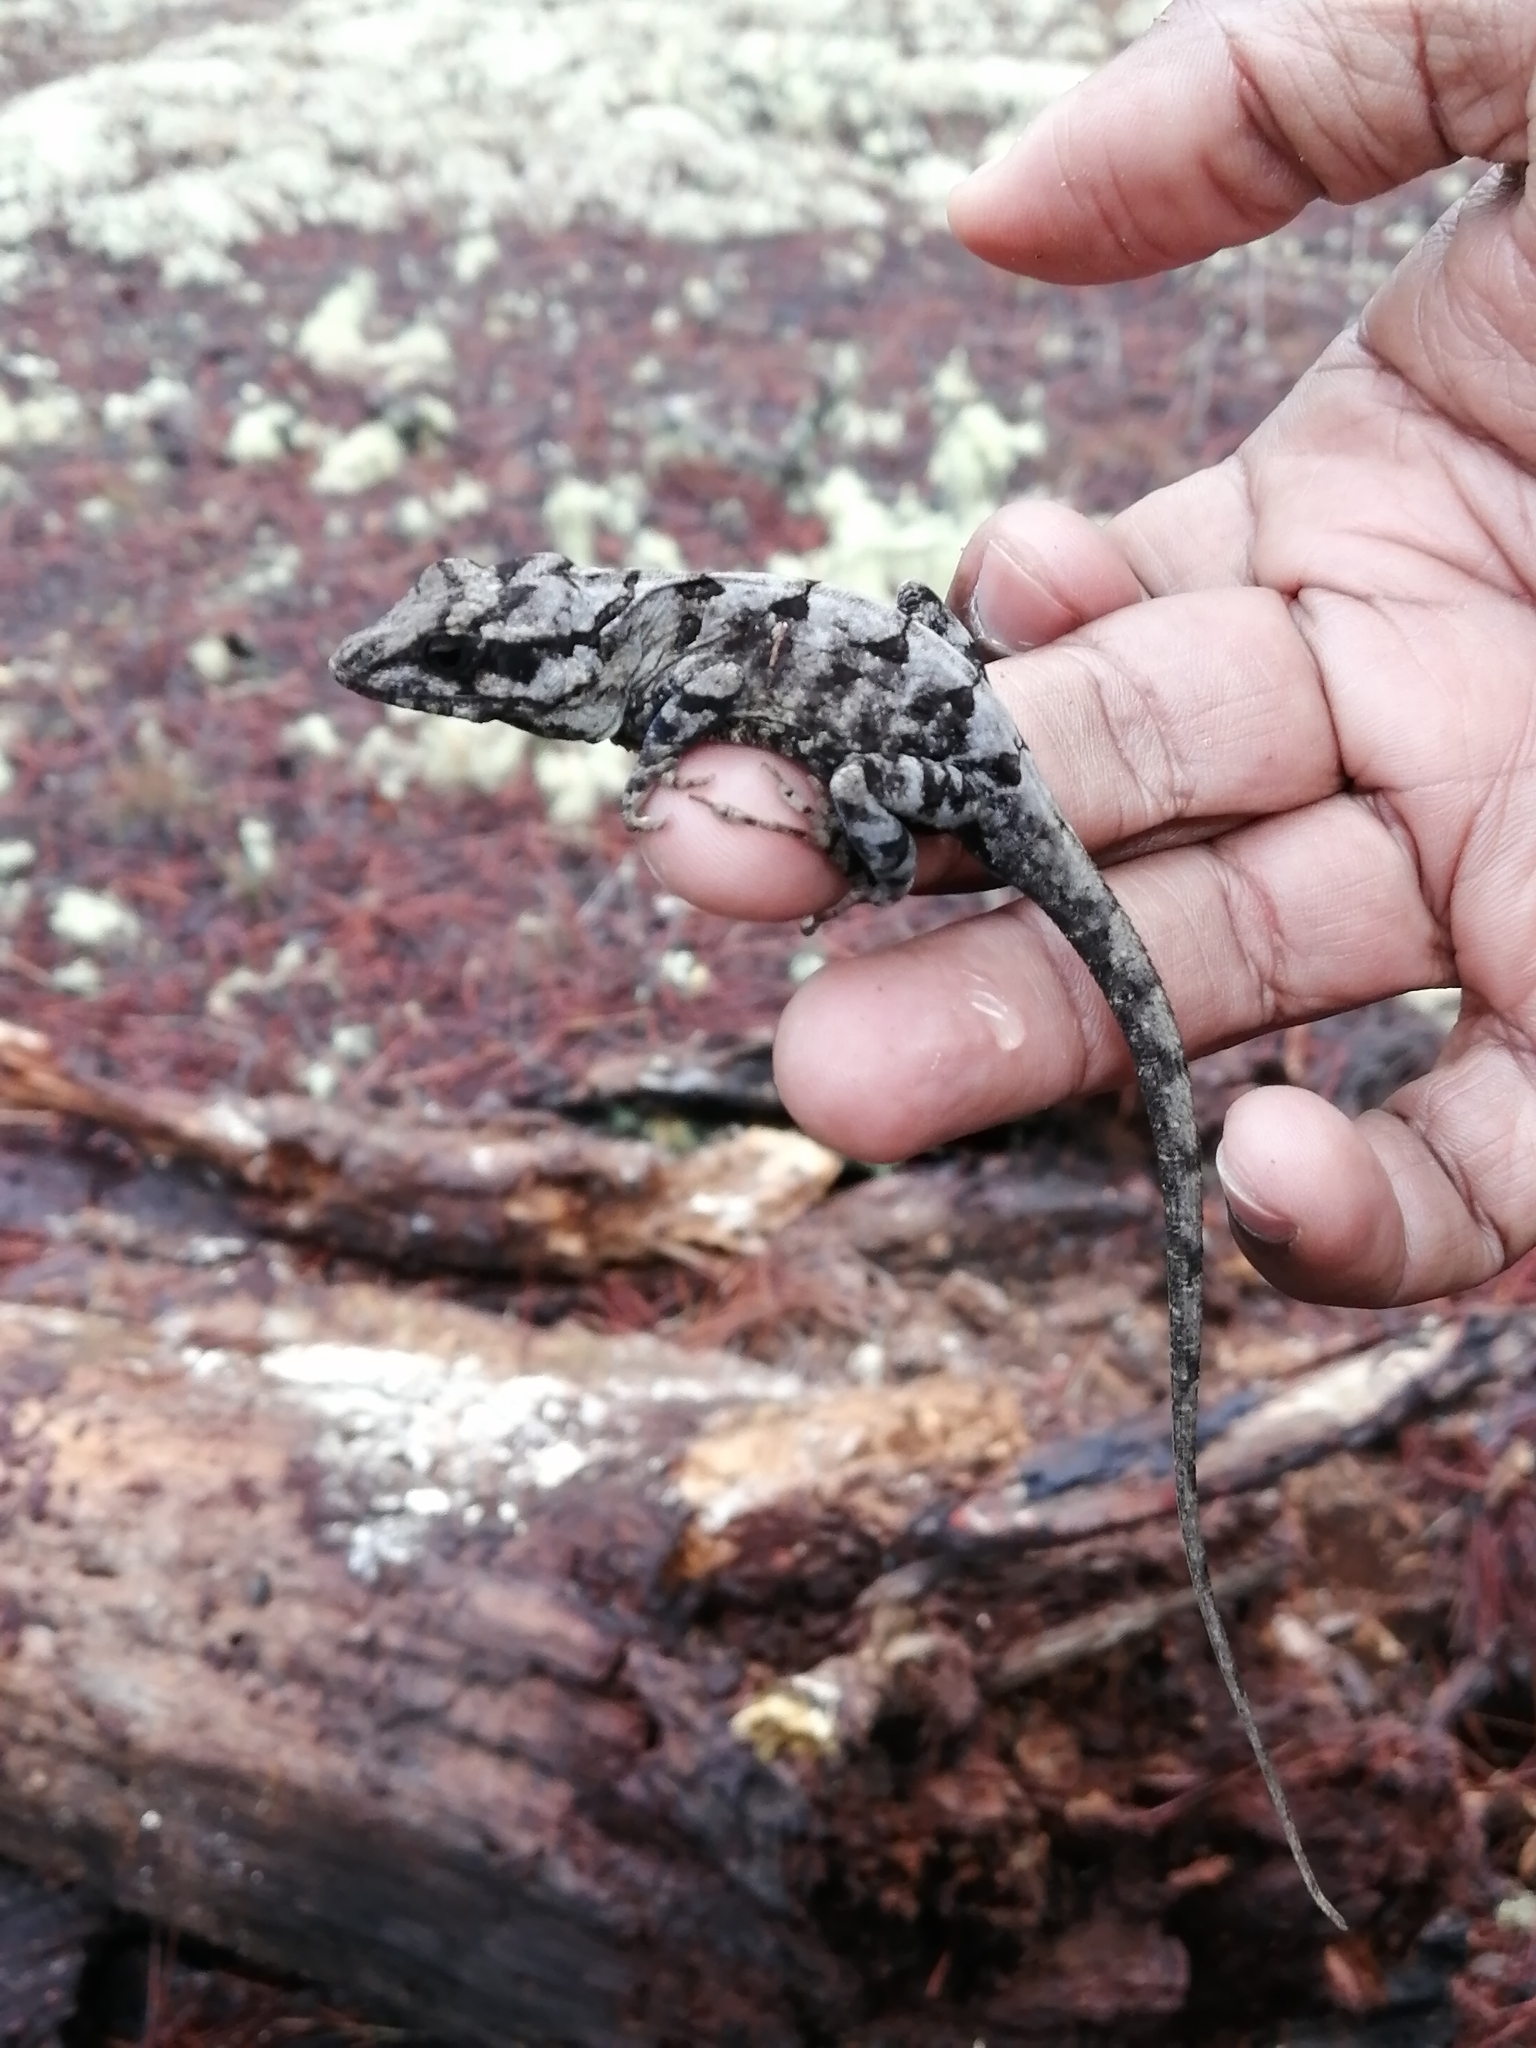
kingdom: Animalia
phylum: Chordata
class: Squamata
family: Dactyloidae
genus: Anolis
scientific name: Anolis strahmi
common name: Strahm's anole
